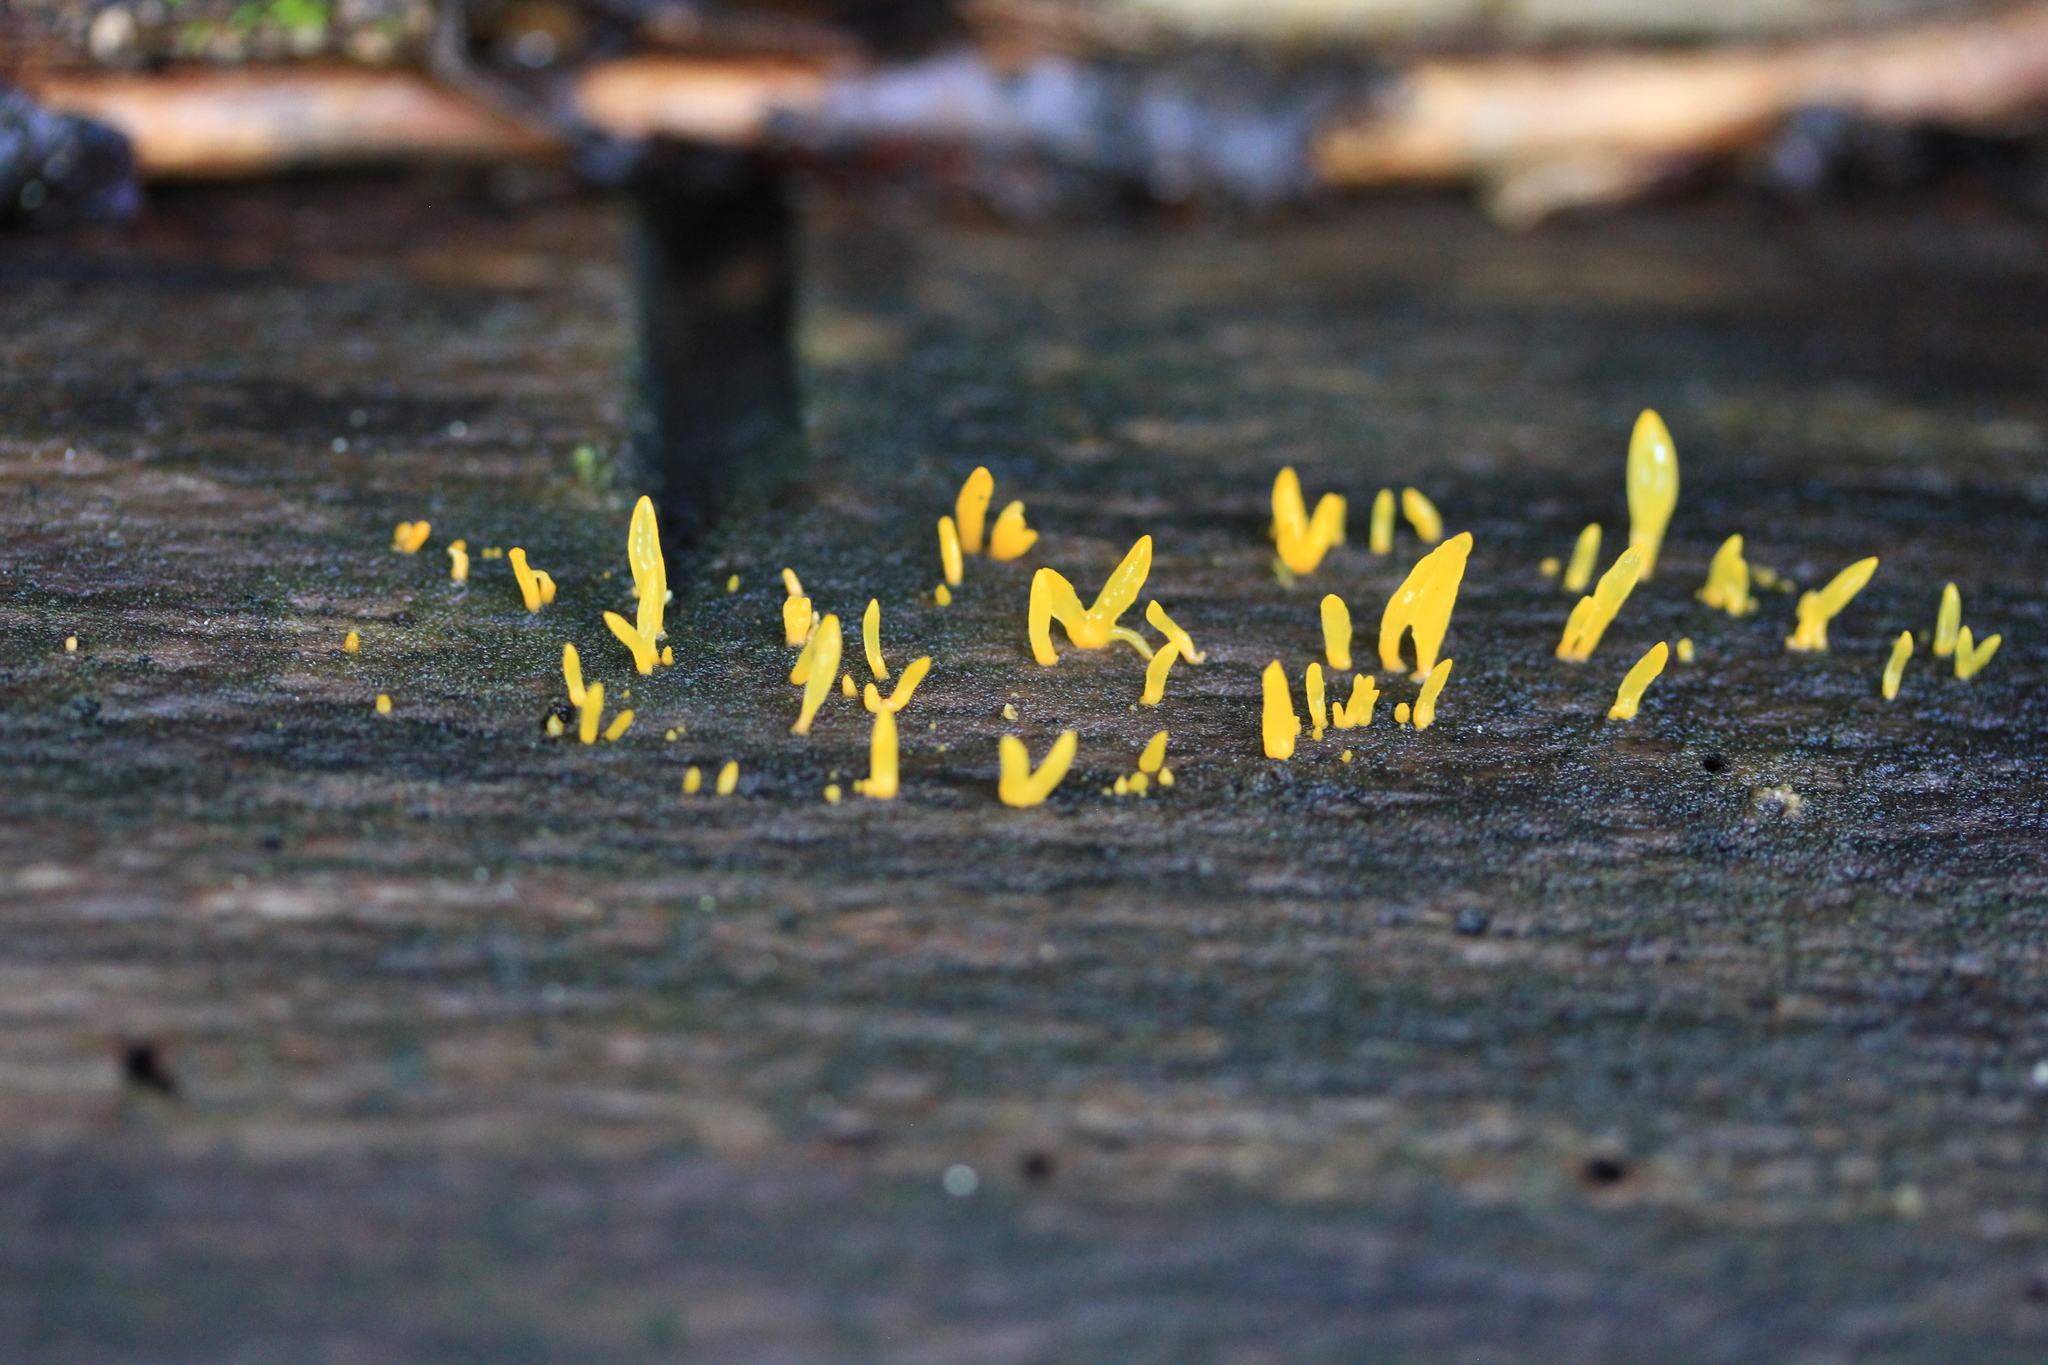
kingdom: Fungi
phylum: Basidiomycota
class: Dacrymycetes
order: Dacrymycetales
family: Dacrymycetaceae
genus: Calocera
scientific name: Calocera cornea
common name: Small stagshorn
